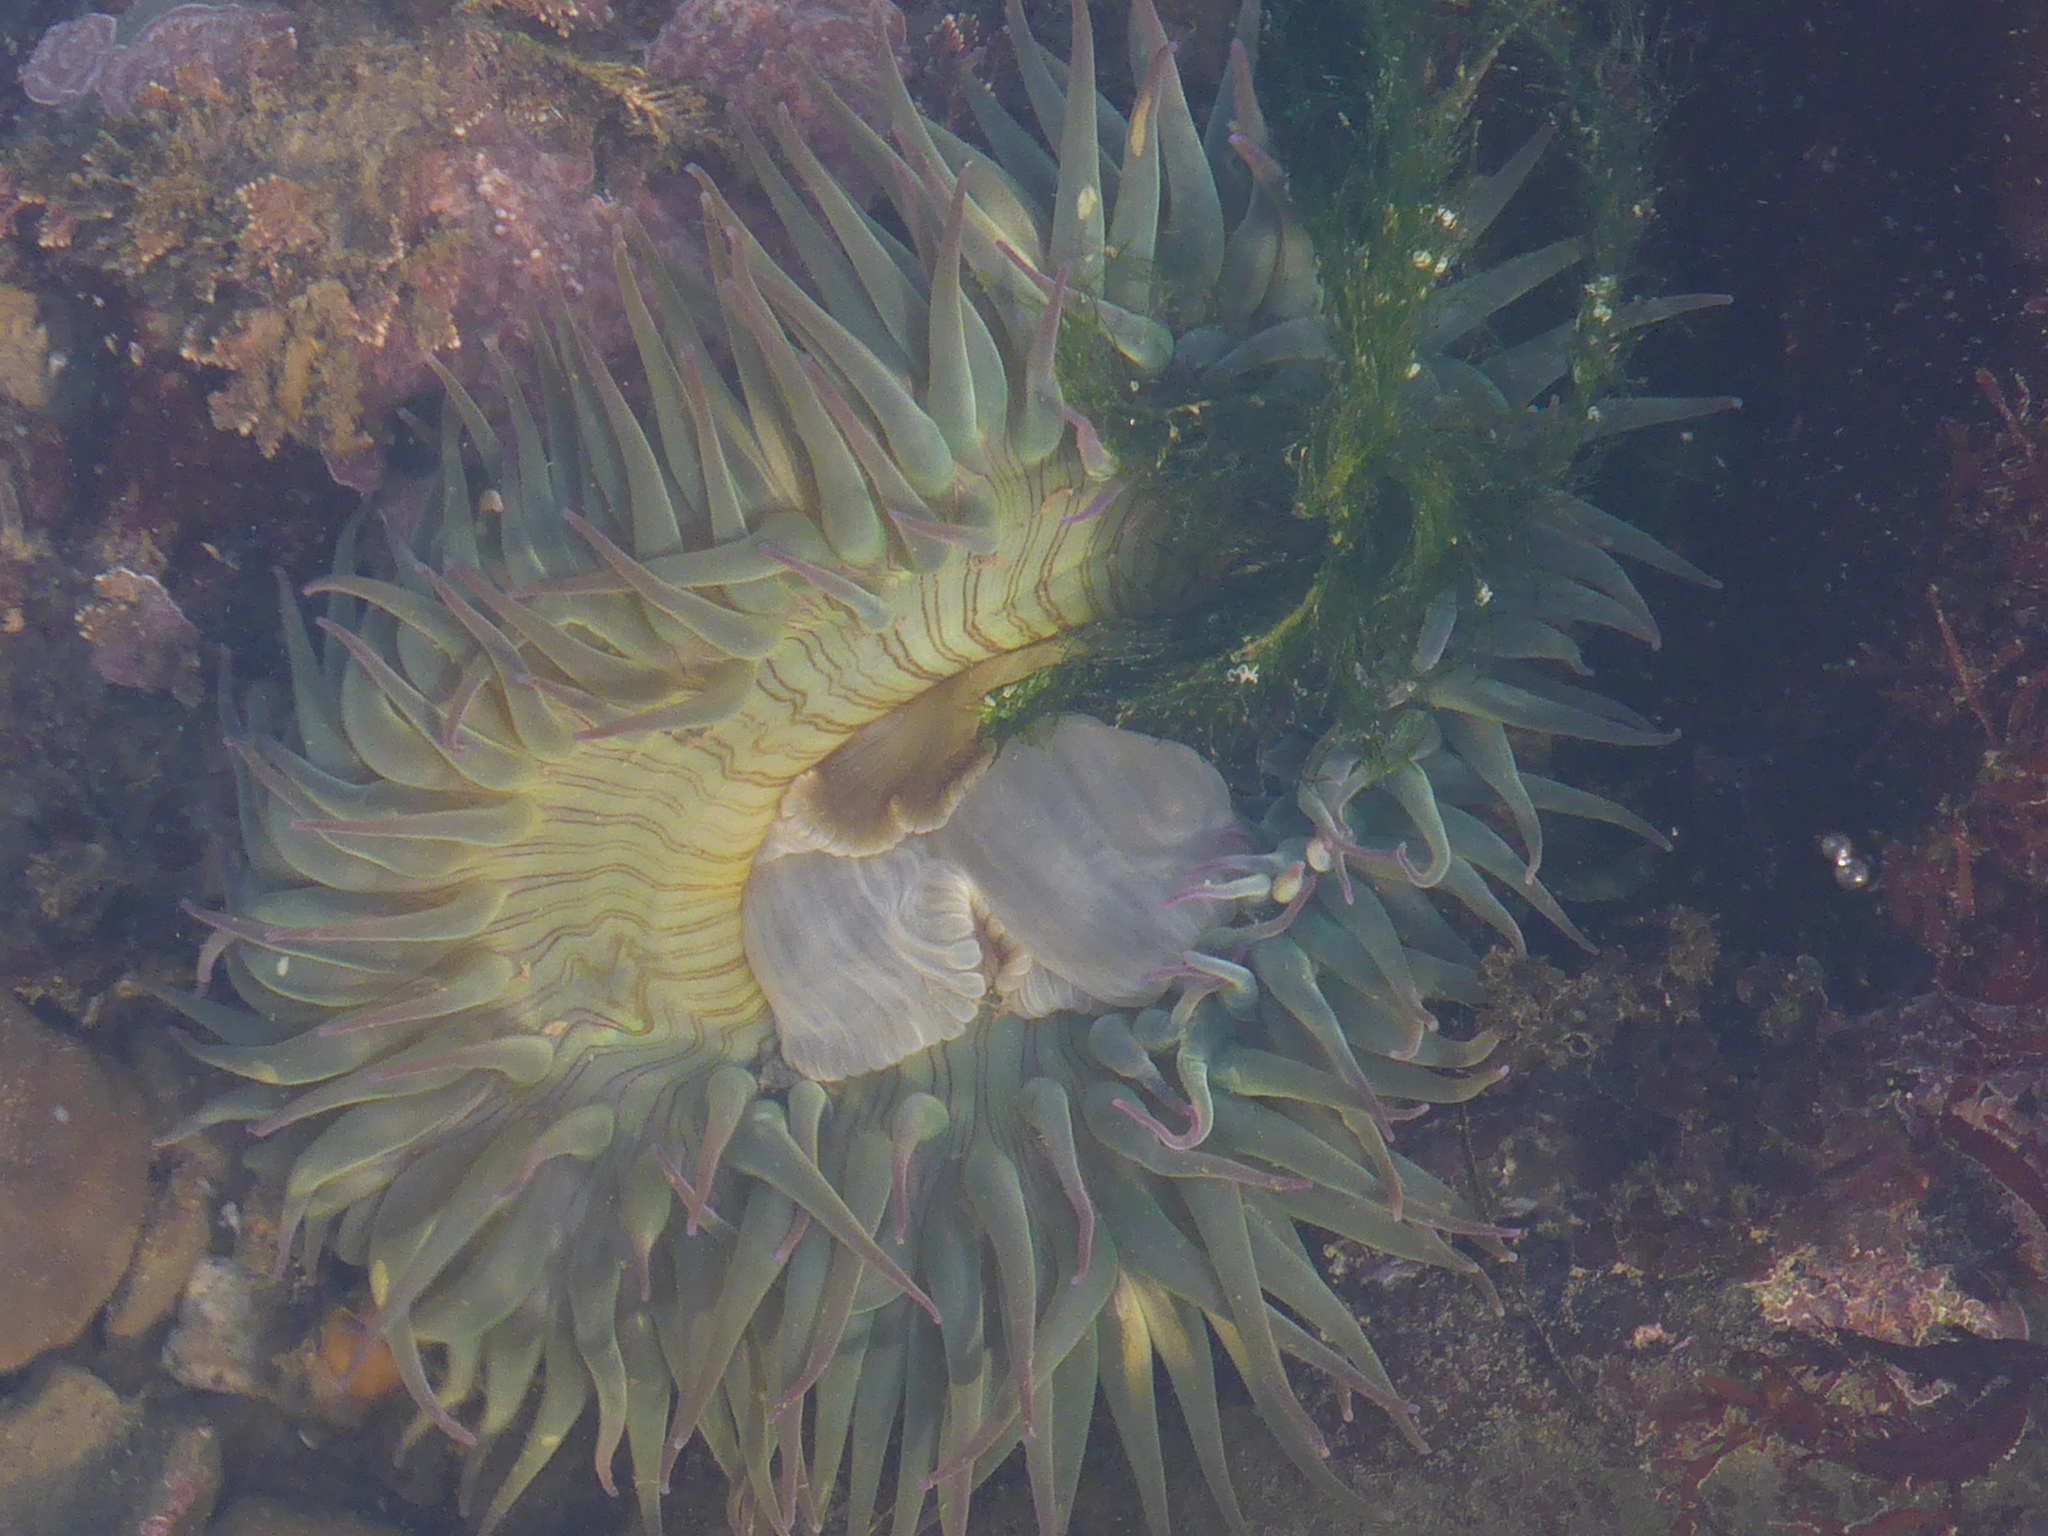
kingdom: Animalia
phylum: Cnidaria
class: Anthozoa
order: Actiniaria
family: Actiniidae
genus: Anthopleura
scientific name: Anthopleura sola
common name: Sun anemone
